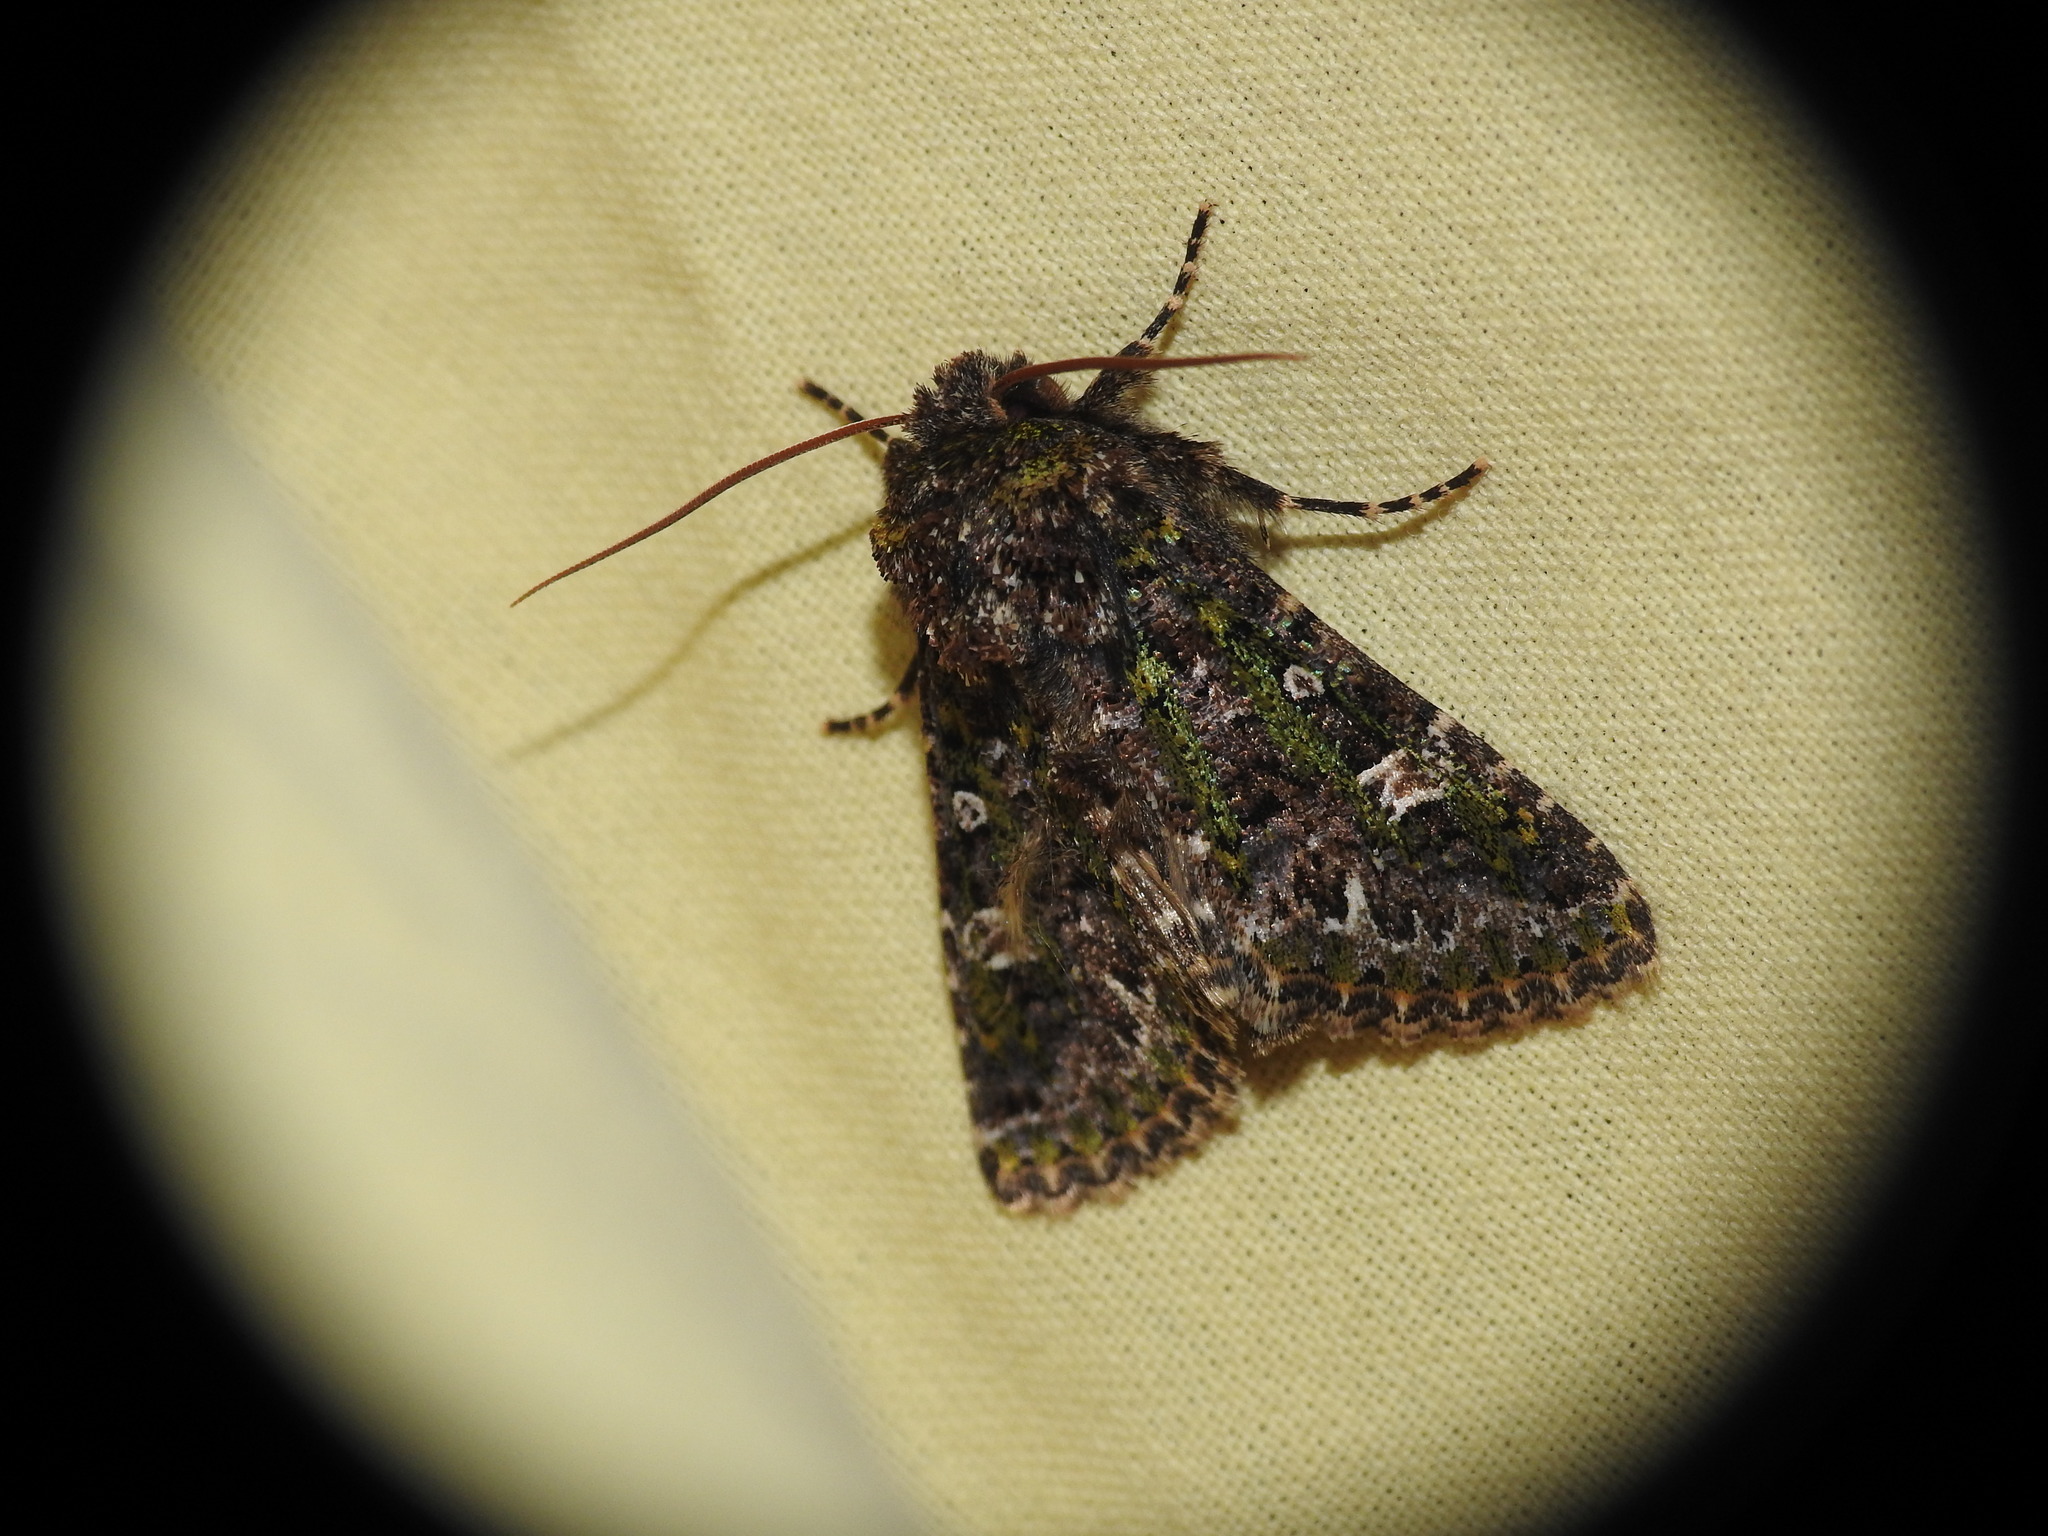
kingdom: Animalia
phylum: Arthropoda
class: Insecta
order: Lepidoptera
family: Noctuidae
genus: Valeria
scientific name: Valeria jaspidea
